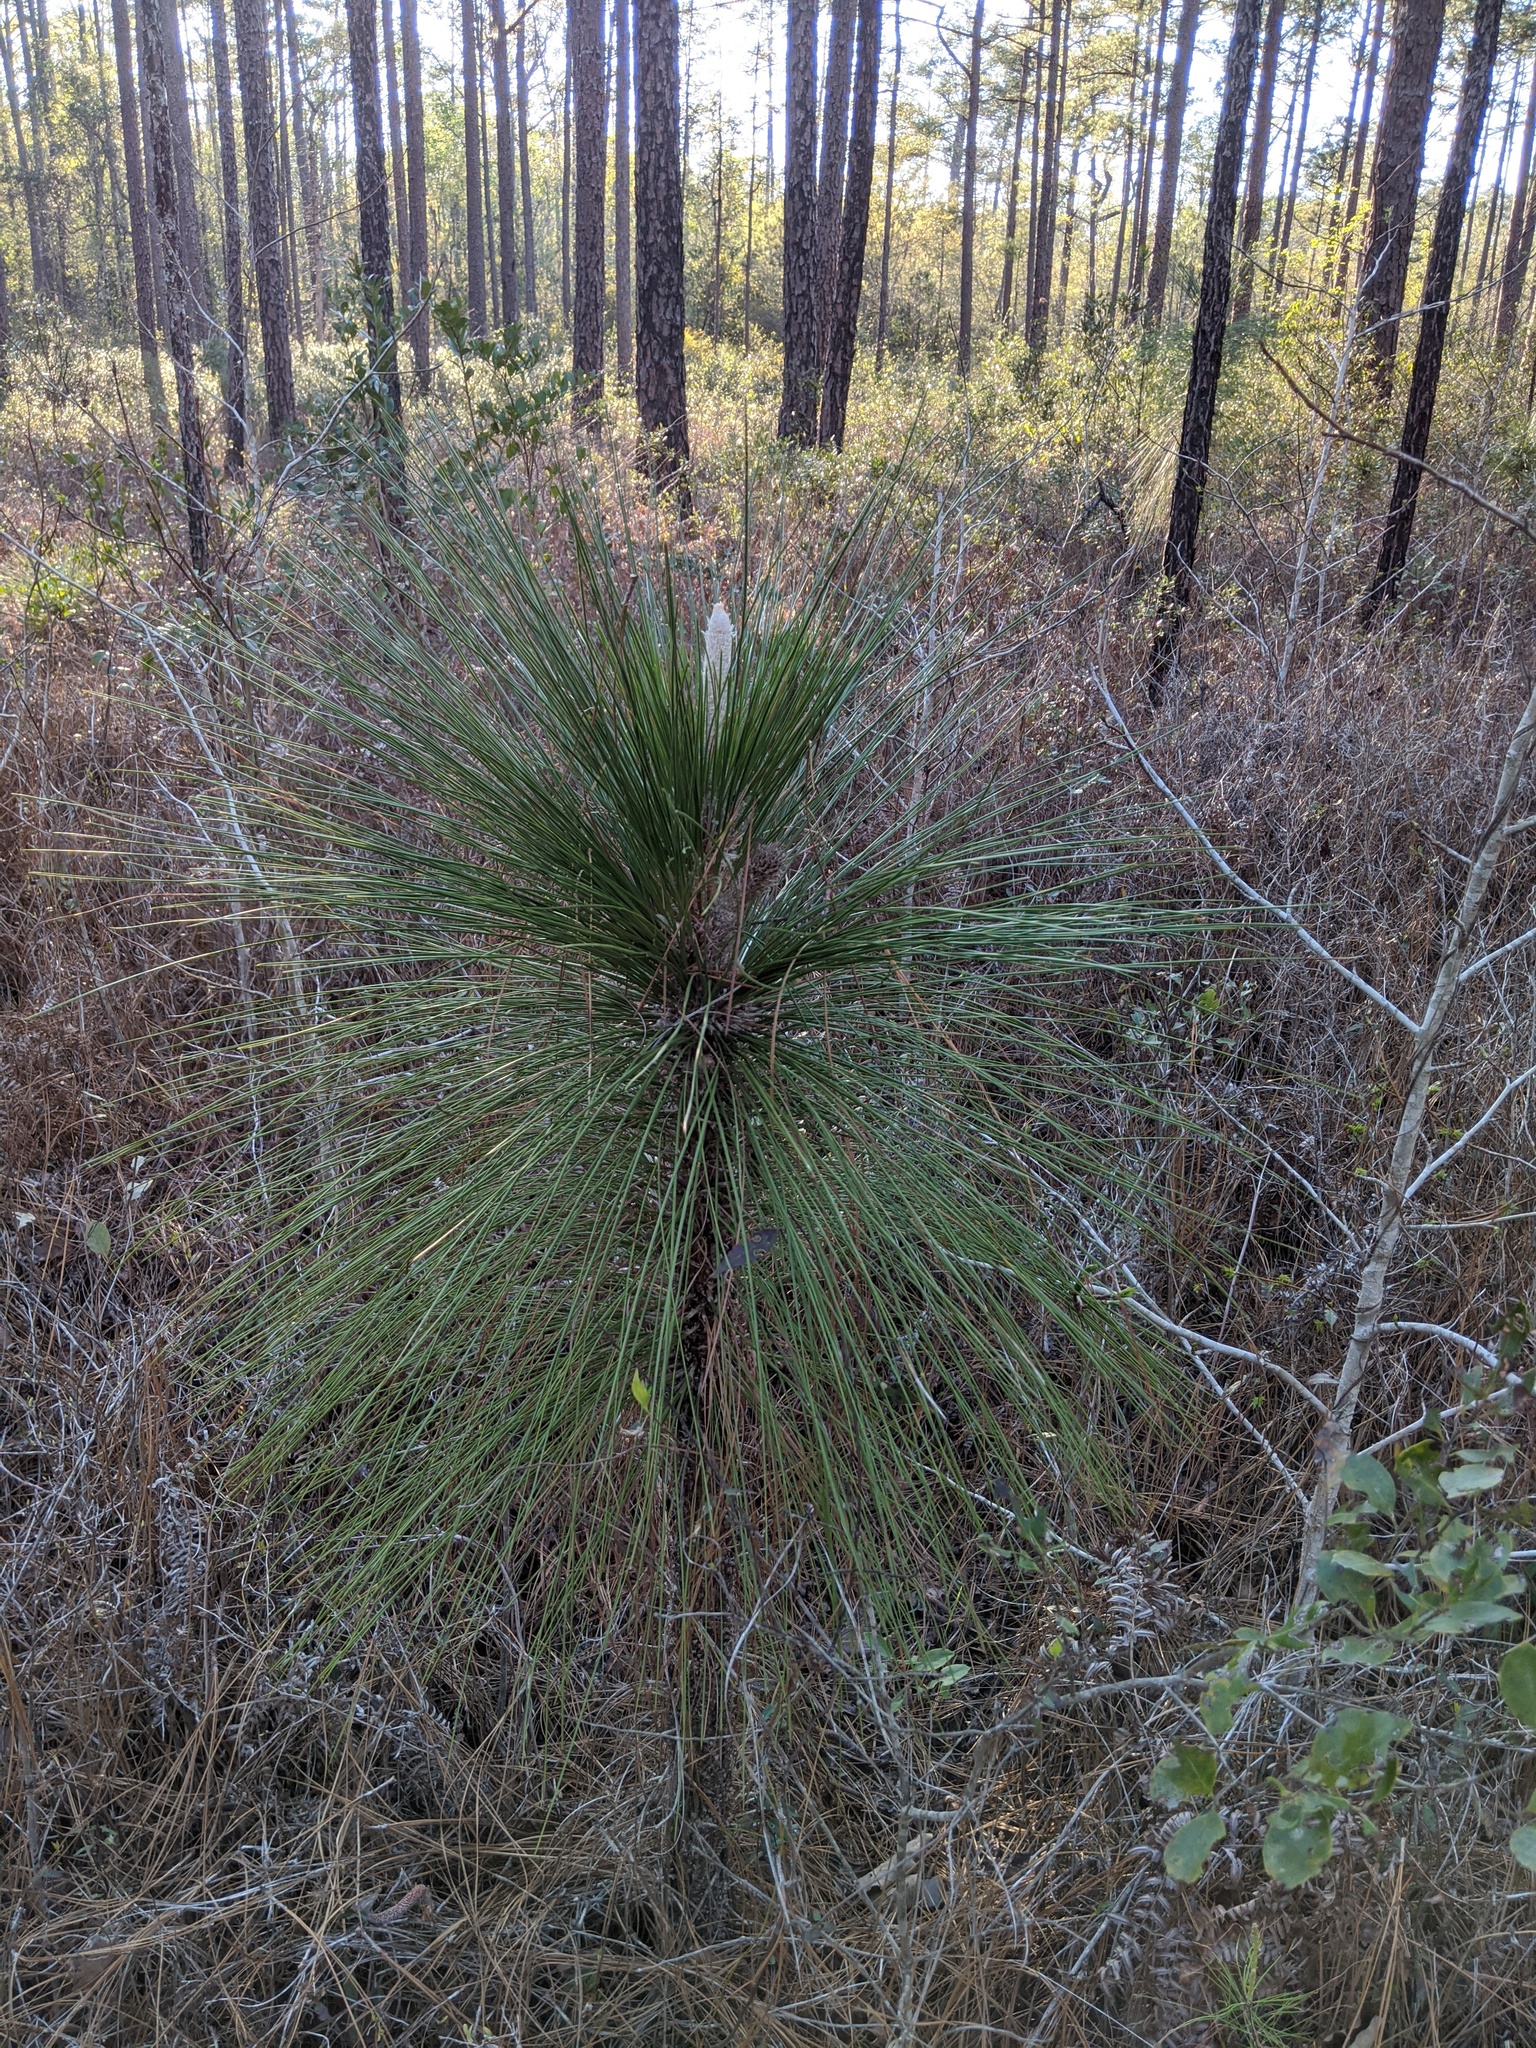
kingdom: Plantae
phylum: Tracheophyta
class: Pinopsida
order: Pinales
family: Pinaceae
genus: Pinus
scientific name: Pinus palustris
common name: Longleaf pine
